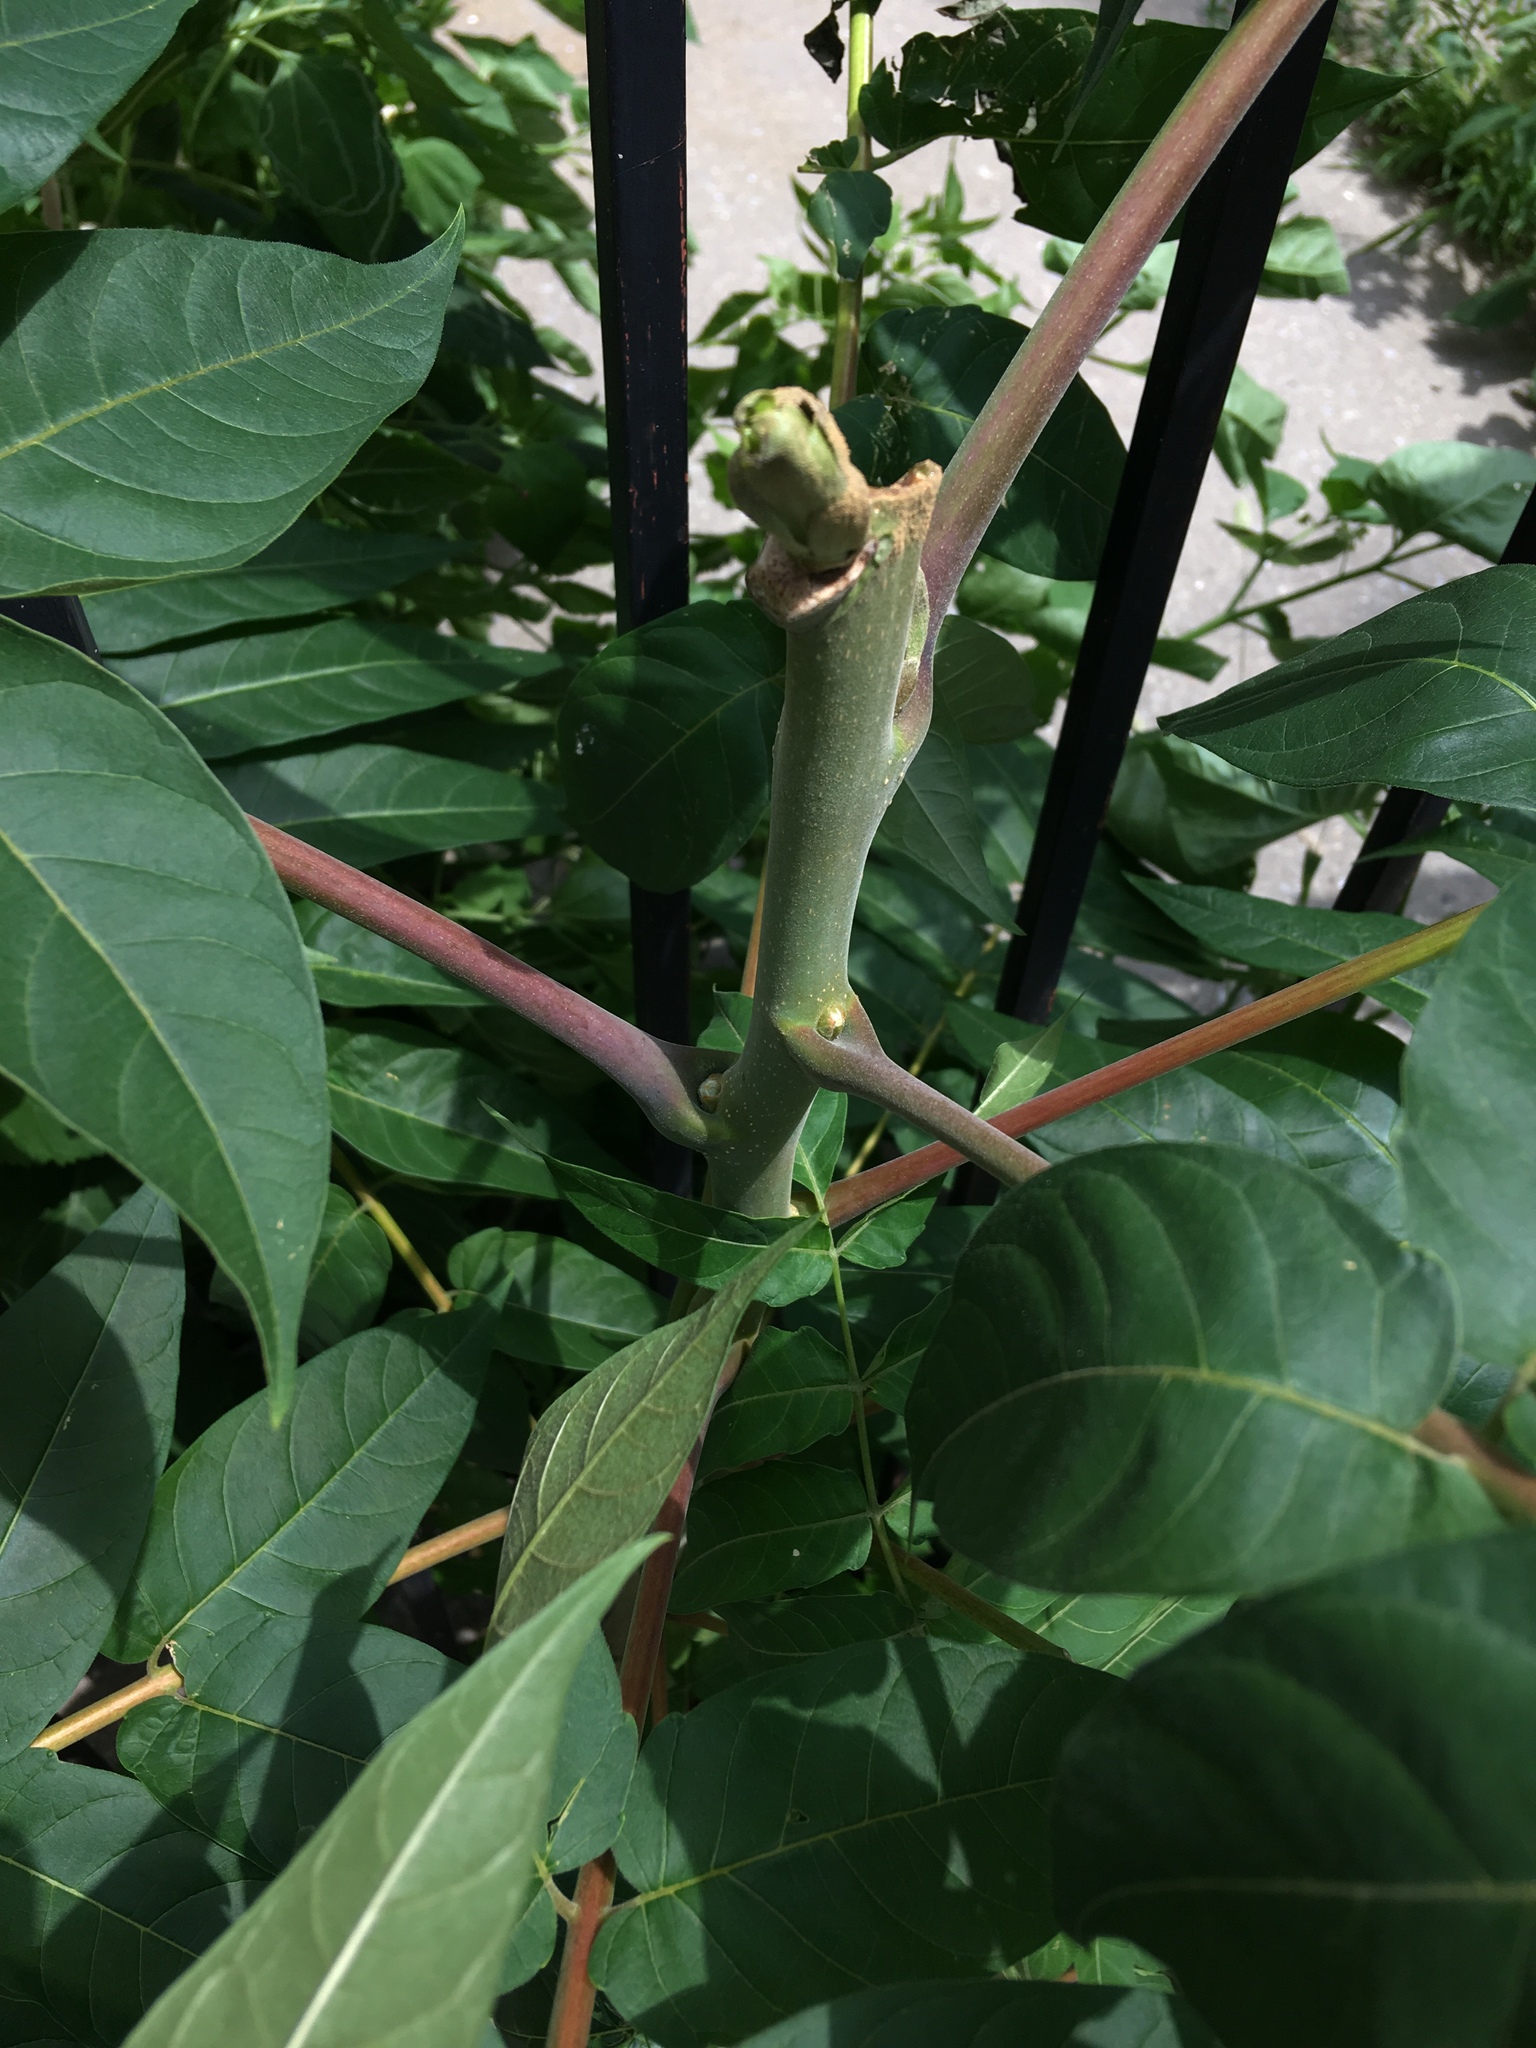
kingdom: Plantae
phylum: Tracheophyta
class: Magnoliopsida
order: Sapindales
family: Simaroubaceae
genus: Ailanthus
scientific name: Ailanthus altissima
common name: Tree-of-heaven
